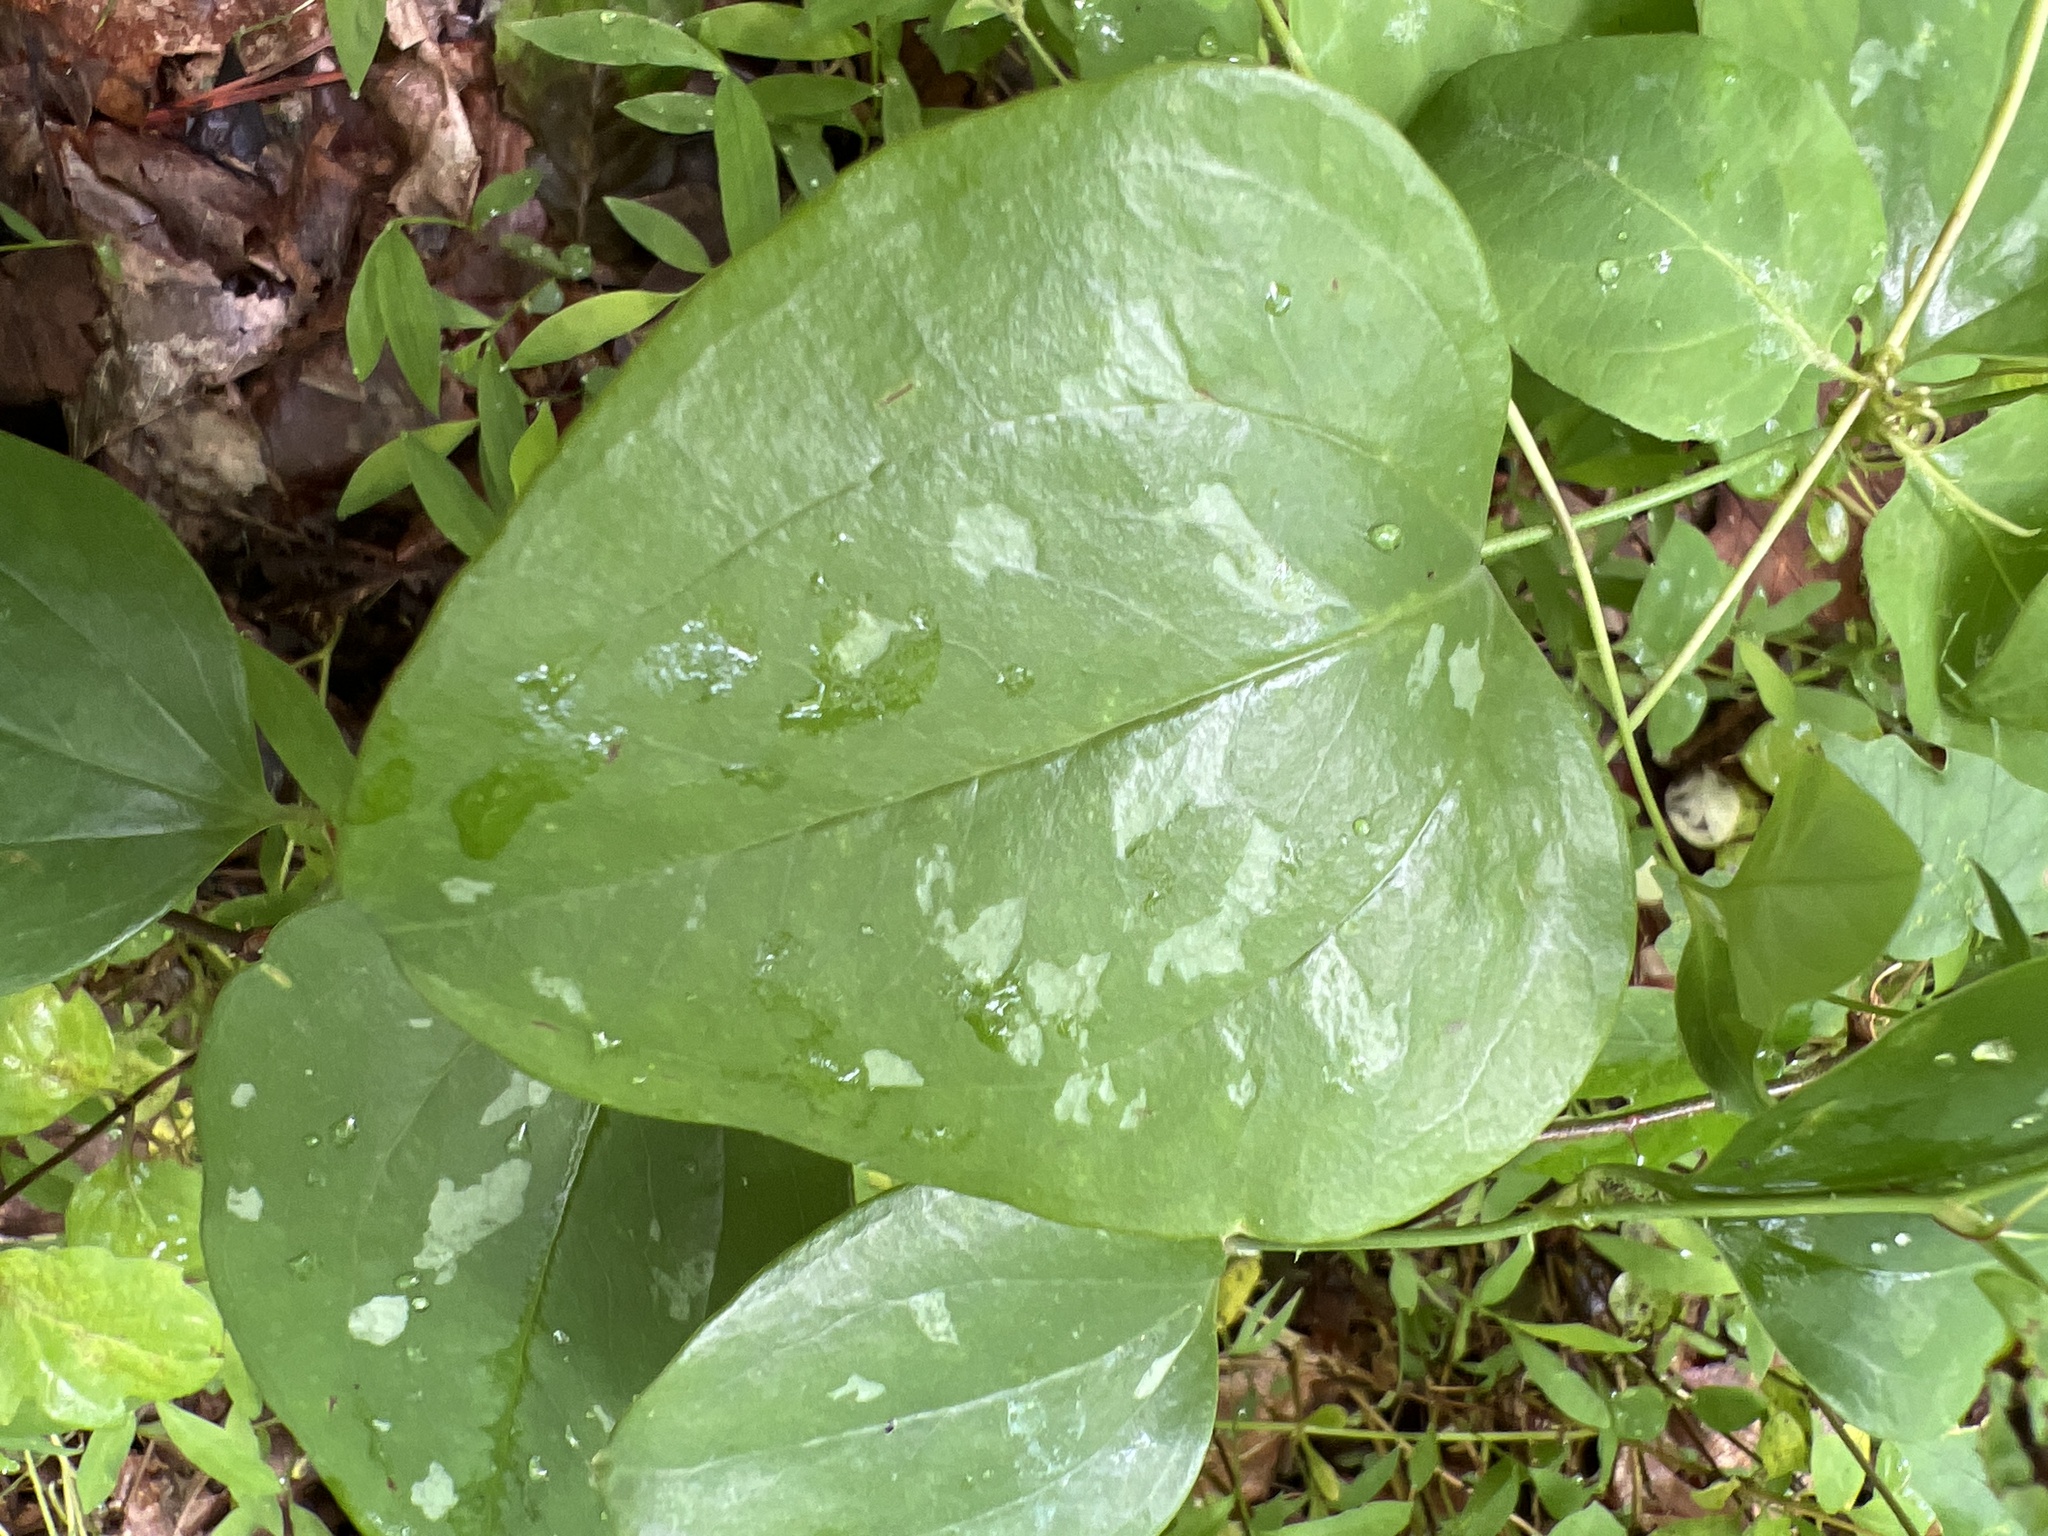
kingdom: Plantae
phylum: Tracheophyta
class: Liliopsida
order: Liliales
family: Smilacaceae
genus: Smilax
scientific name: Smilax glauca
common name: Cat greenbrier
